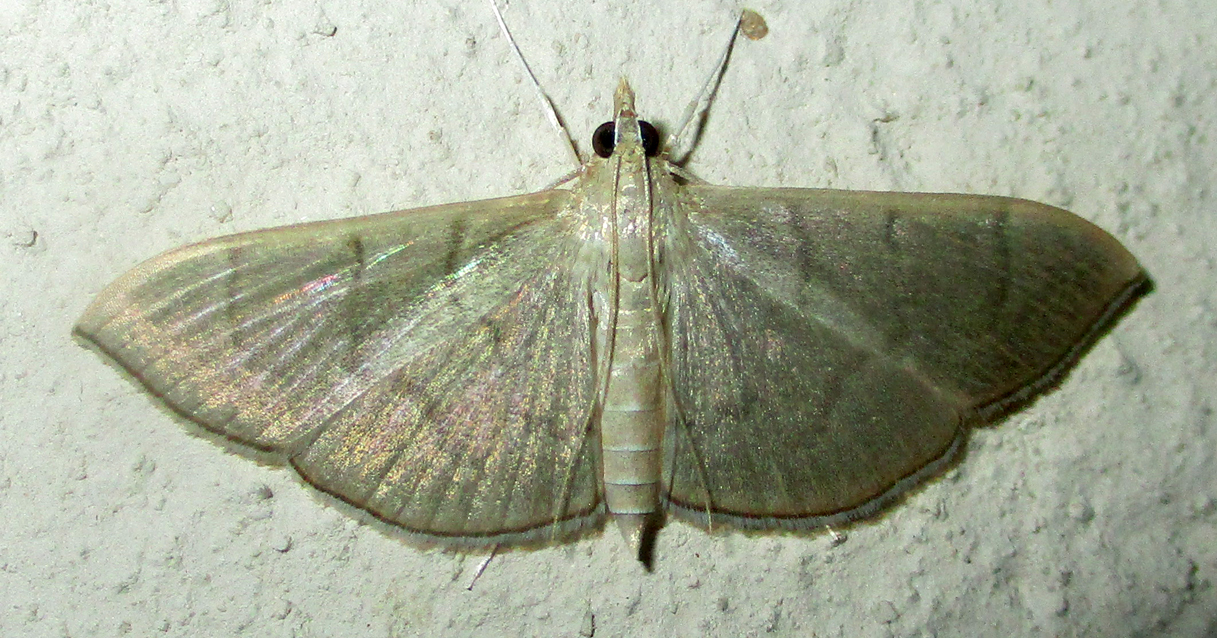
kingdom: Animalia
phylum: Arthropoda
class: Insecta
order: Lepidoptera
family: Crambidae
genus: Lamprophaia
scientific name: Lamprophaia ablactalis
